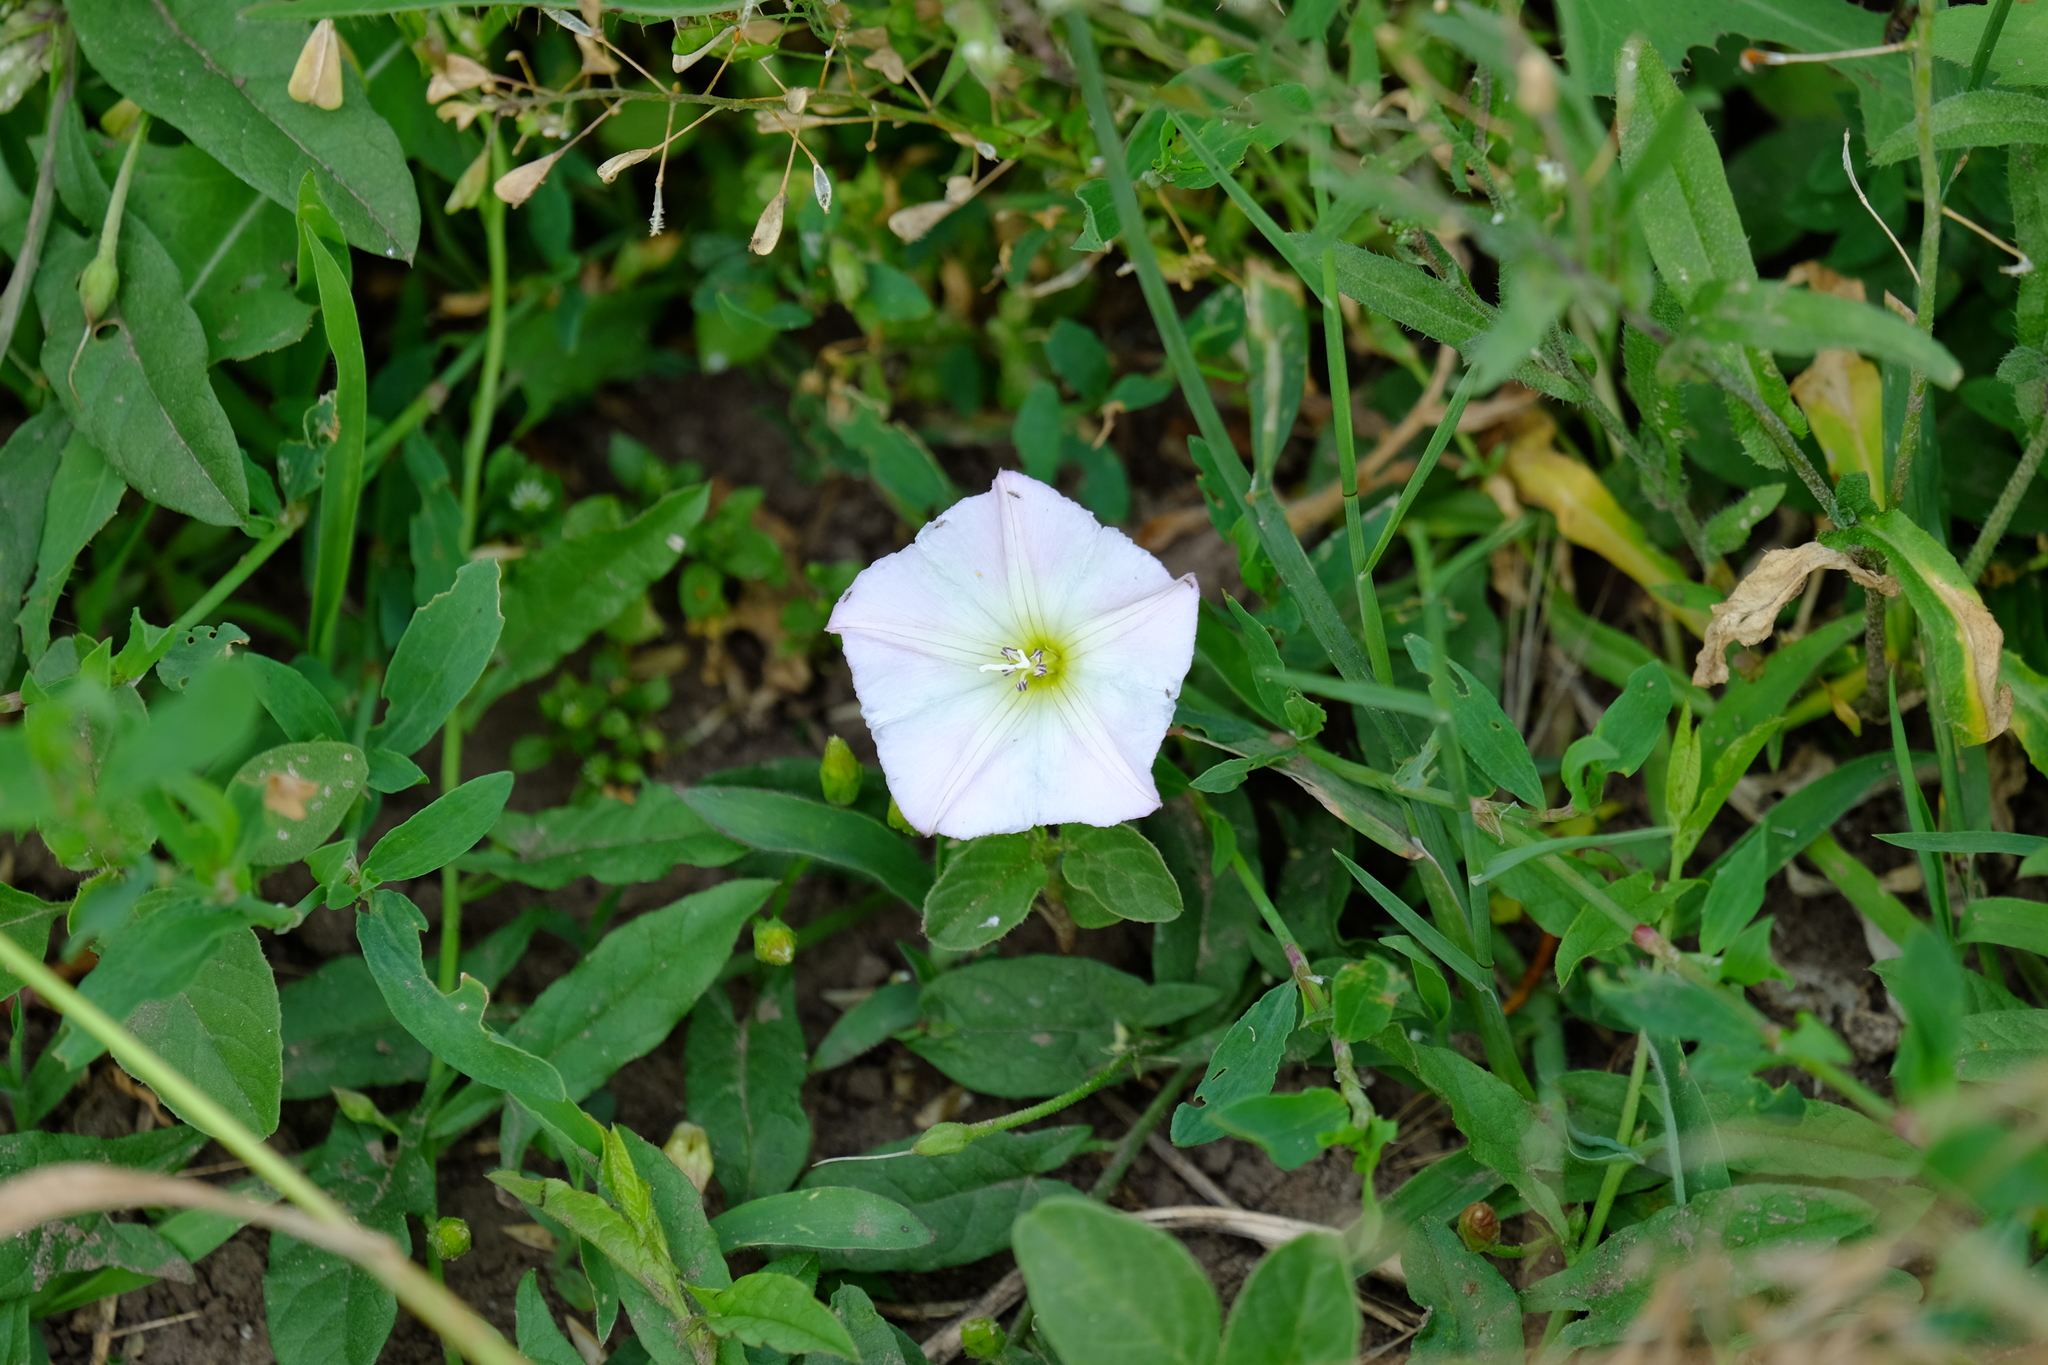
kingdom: Plantae
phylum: Tracheophyta
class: Magnoliopsida
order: Solanales
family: Convolvulaceae
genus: Convolvulus
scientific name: Convolvulus arvensis
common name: Field bindweed
